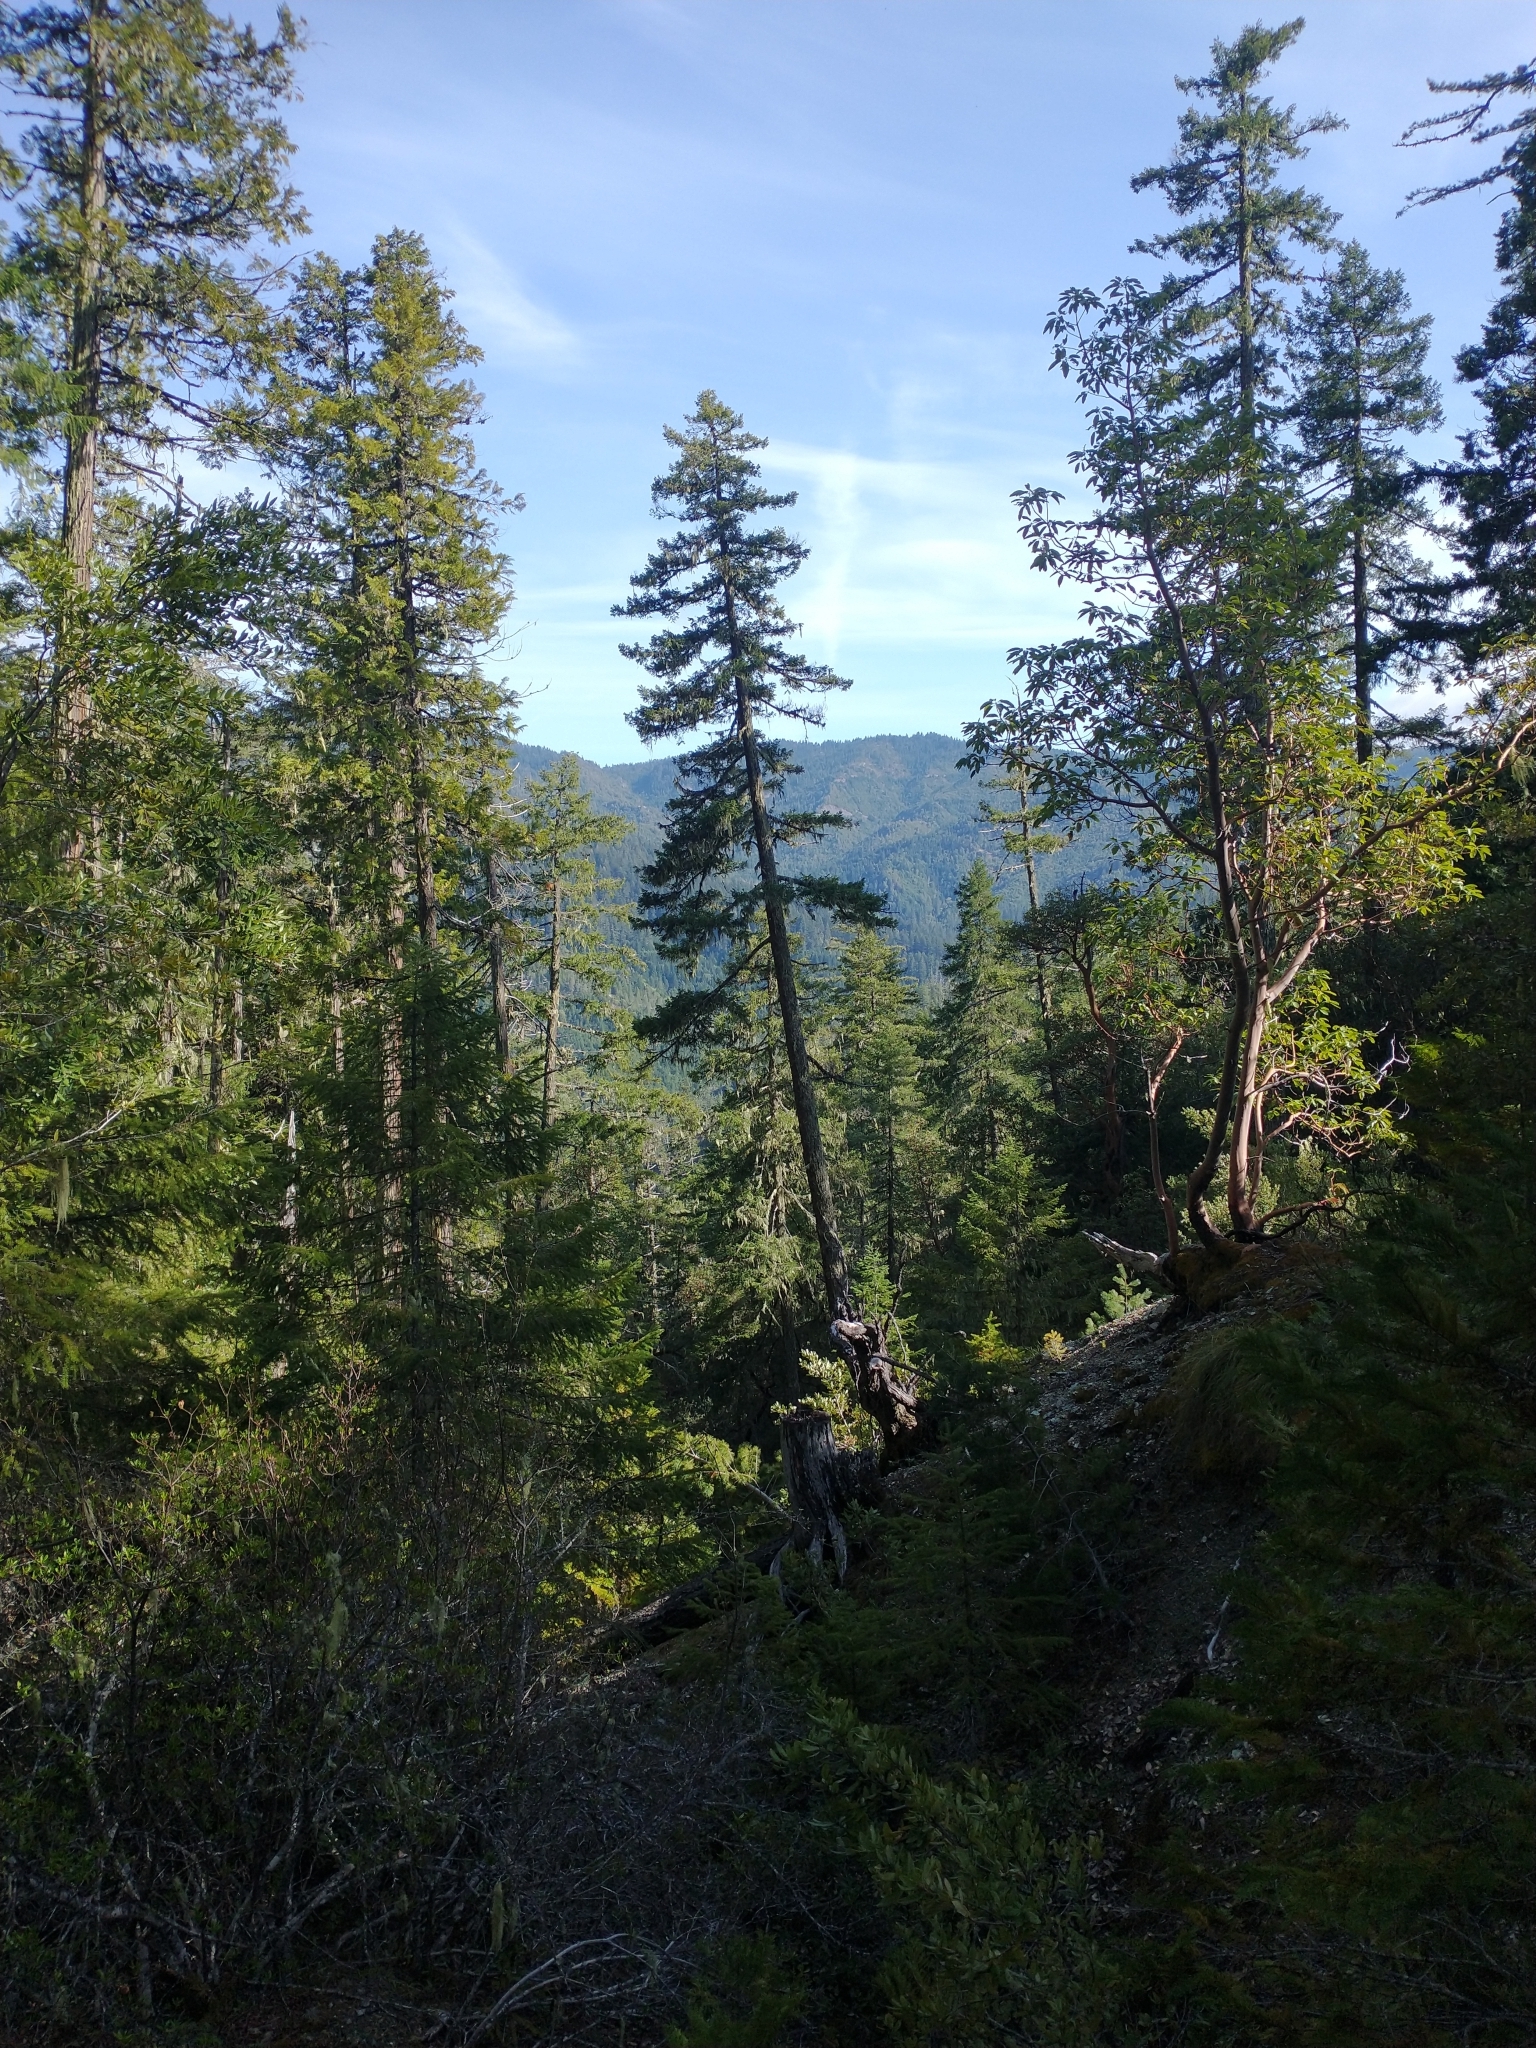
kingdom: Plantae
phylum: Tracheophyta
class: Pinopsida
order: Pinales
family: Pinaceae
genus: Pseudotsuga
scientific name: Pseudotsuga menziesii
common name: Douglas fir
